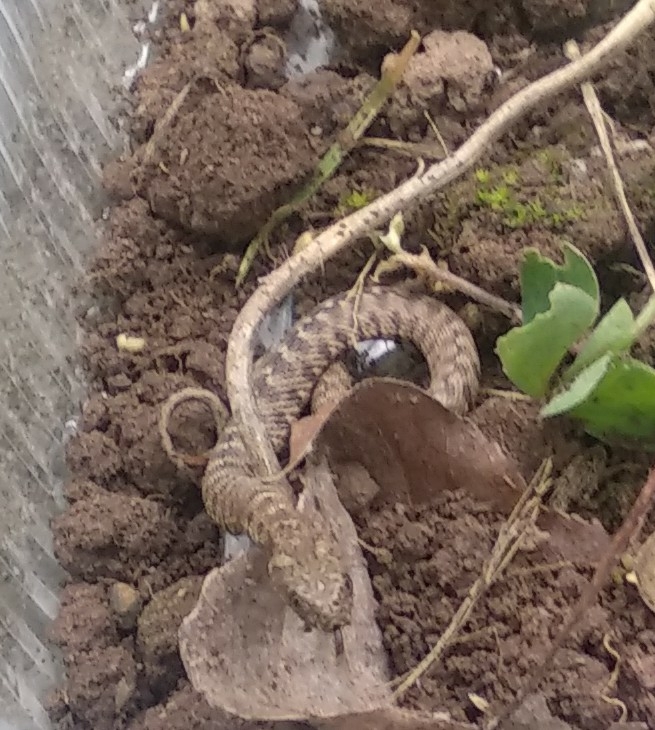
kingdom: Animalia
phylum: Chordata
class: Squamata
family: Colubridae
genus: Natrix
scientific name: Natrix maura
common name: Viperine water snake
